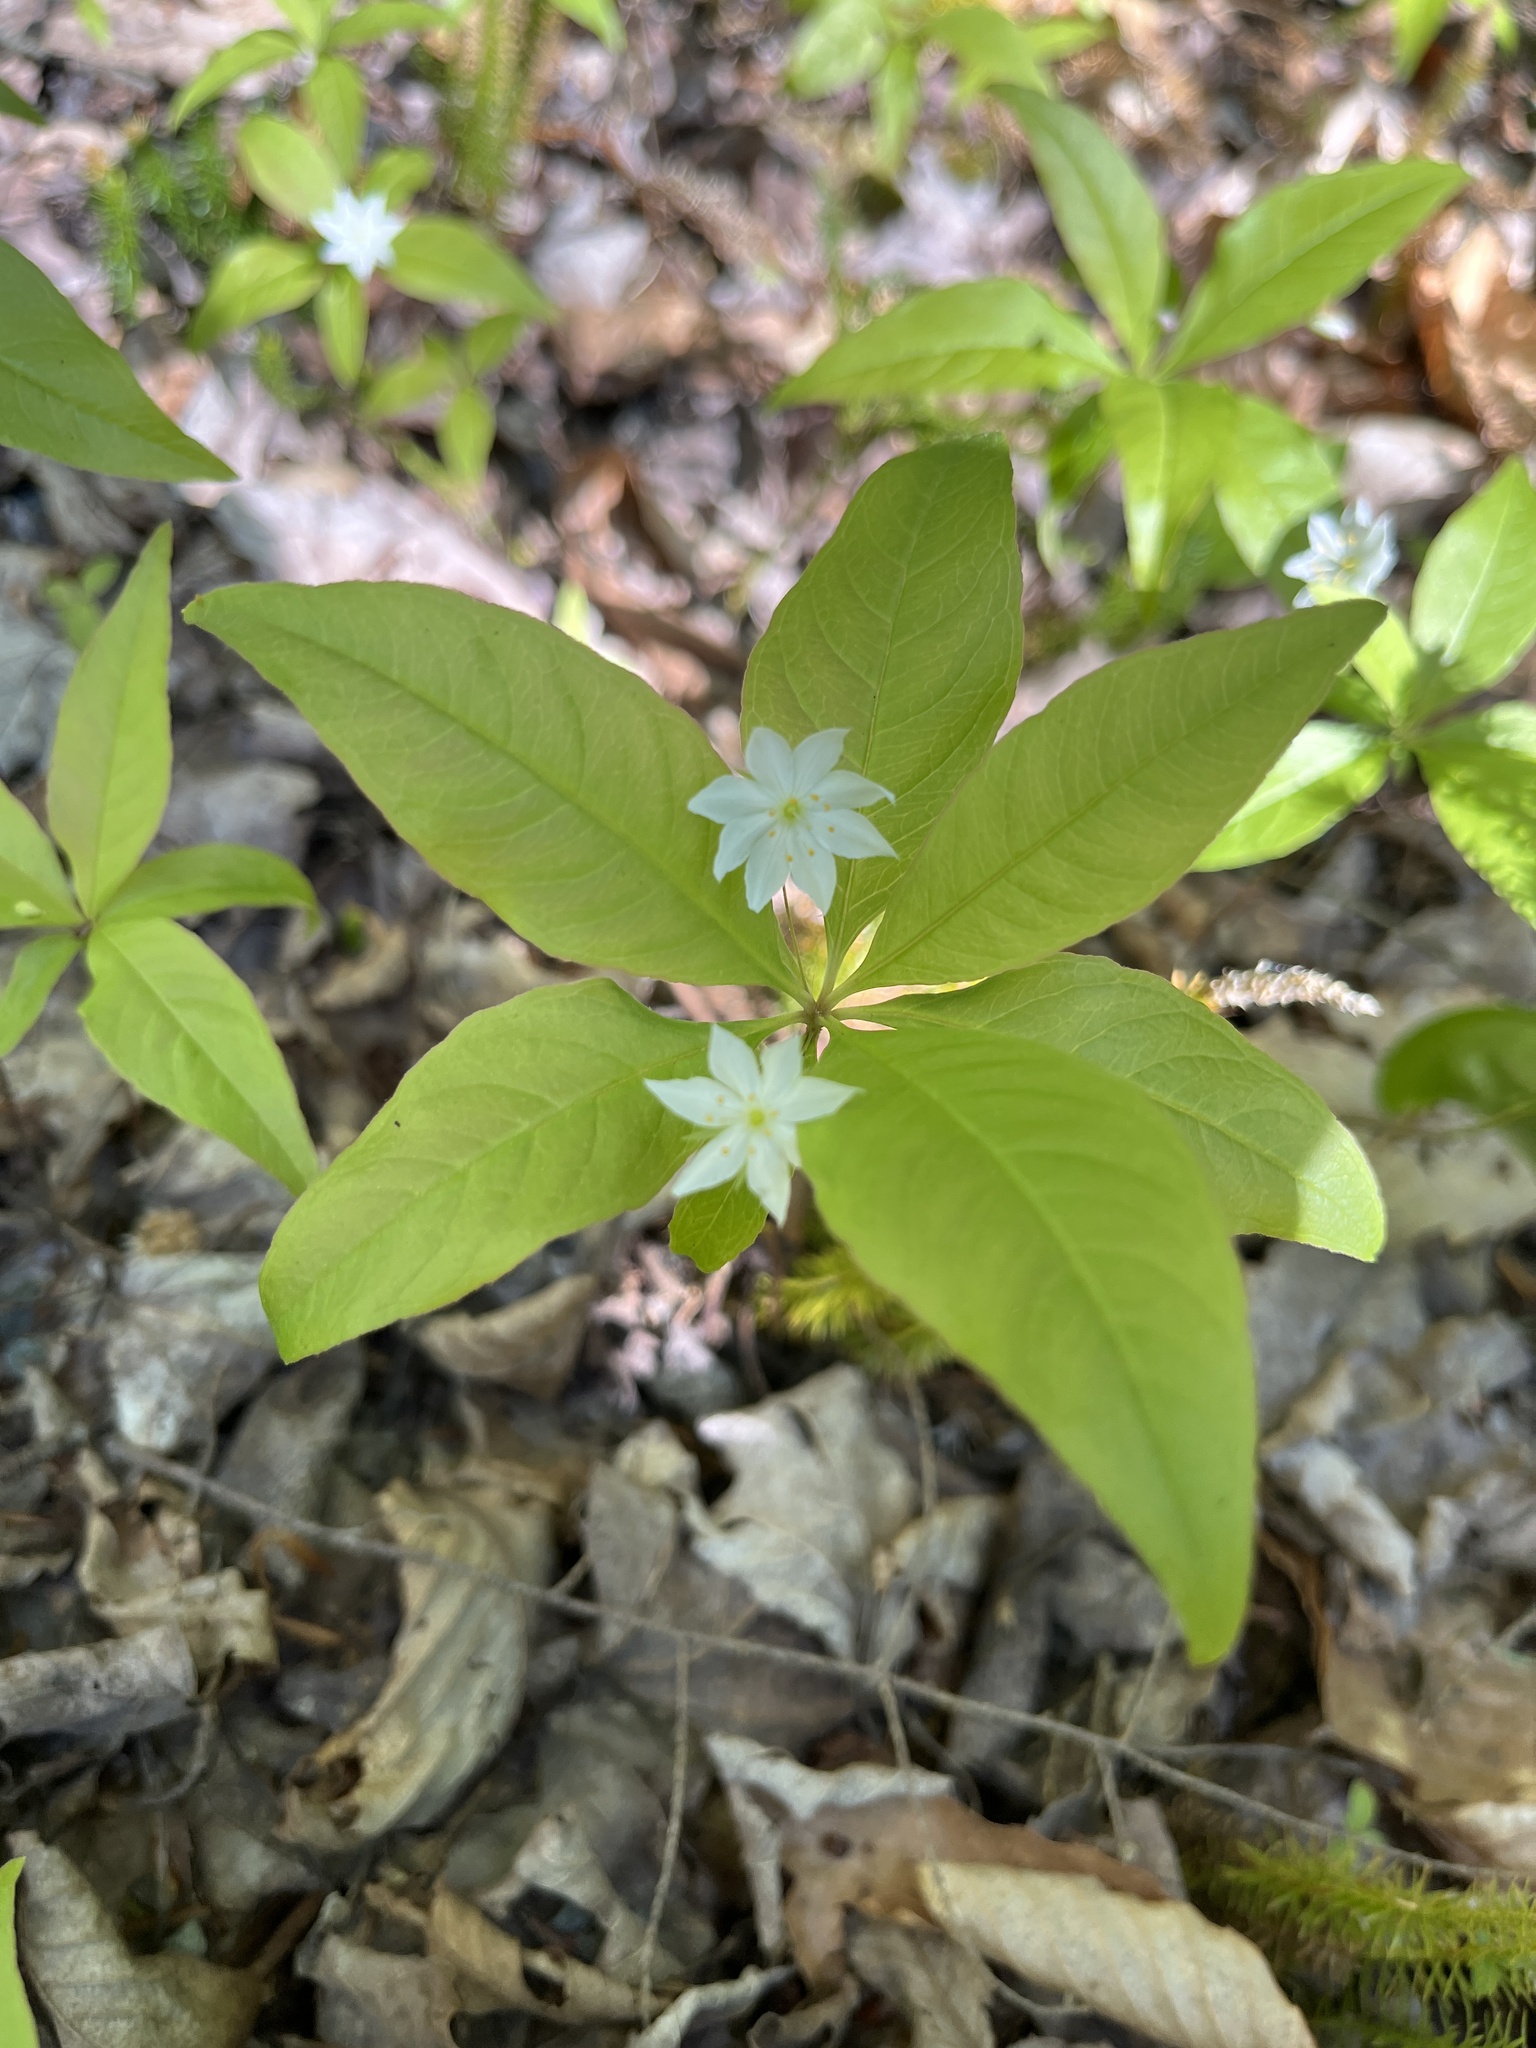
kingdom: Plantae
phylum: Tracheophyta
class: Magnoliopsida
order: Ericales
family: Primulaceae
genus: Lysimachia
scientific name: Lysimachia borealis
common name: American starflower
